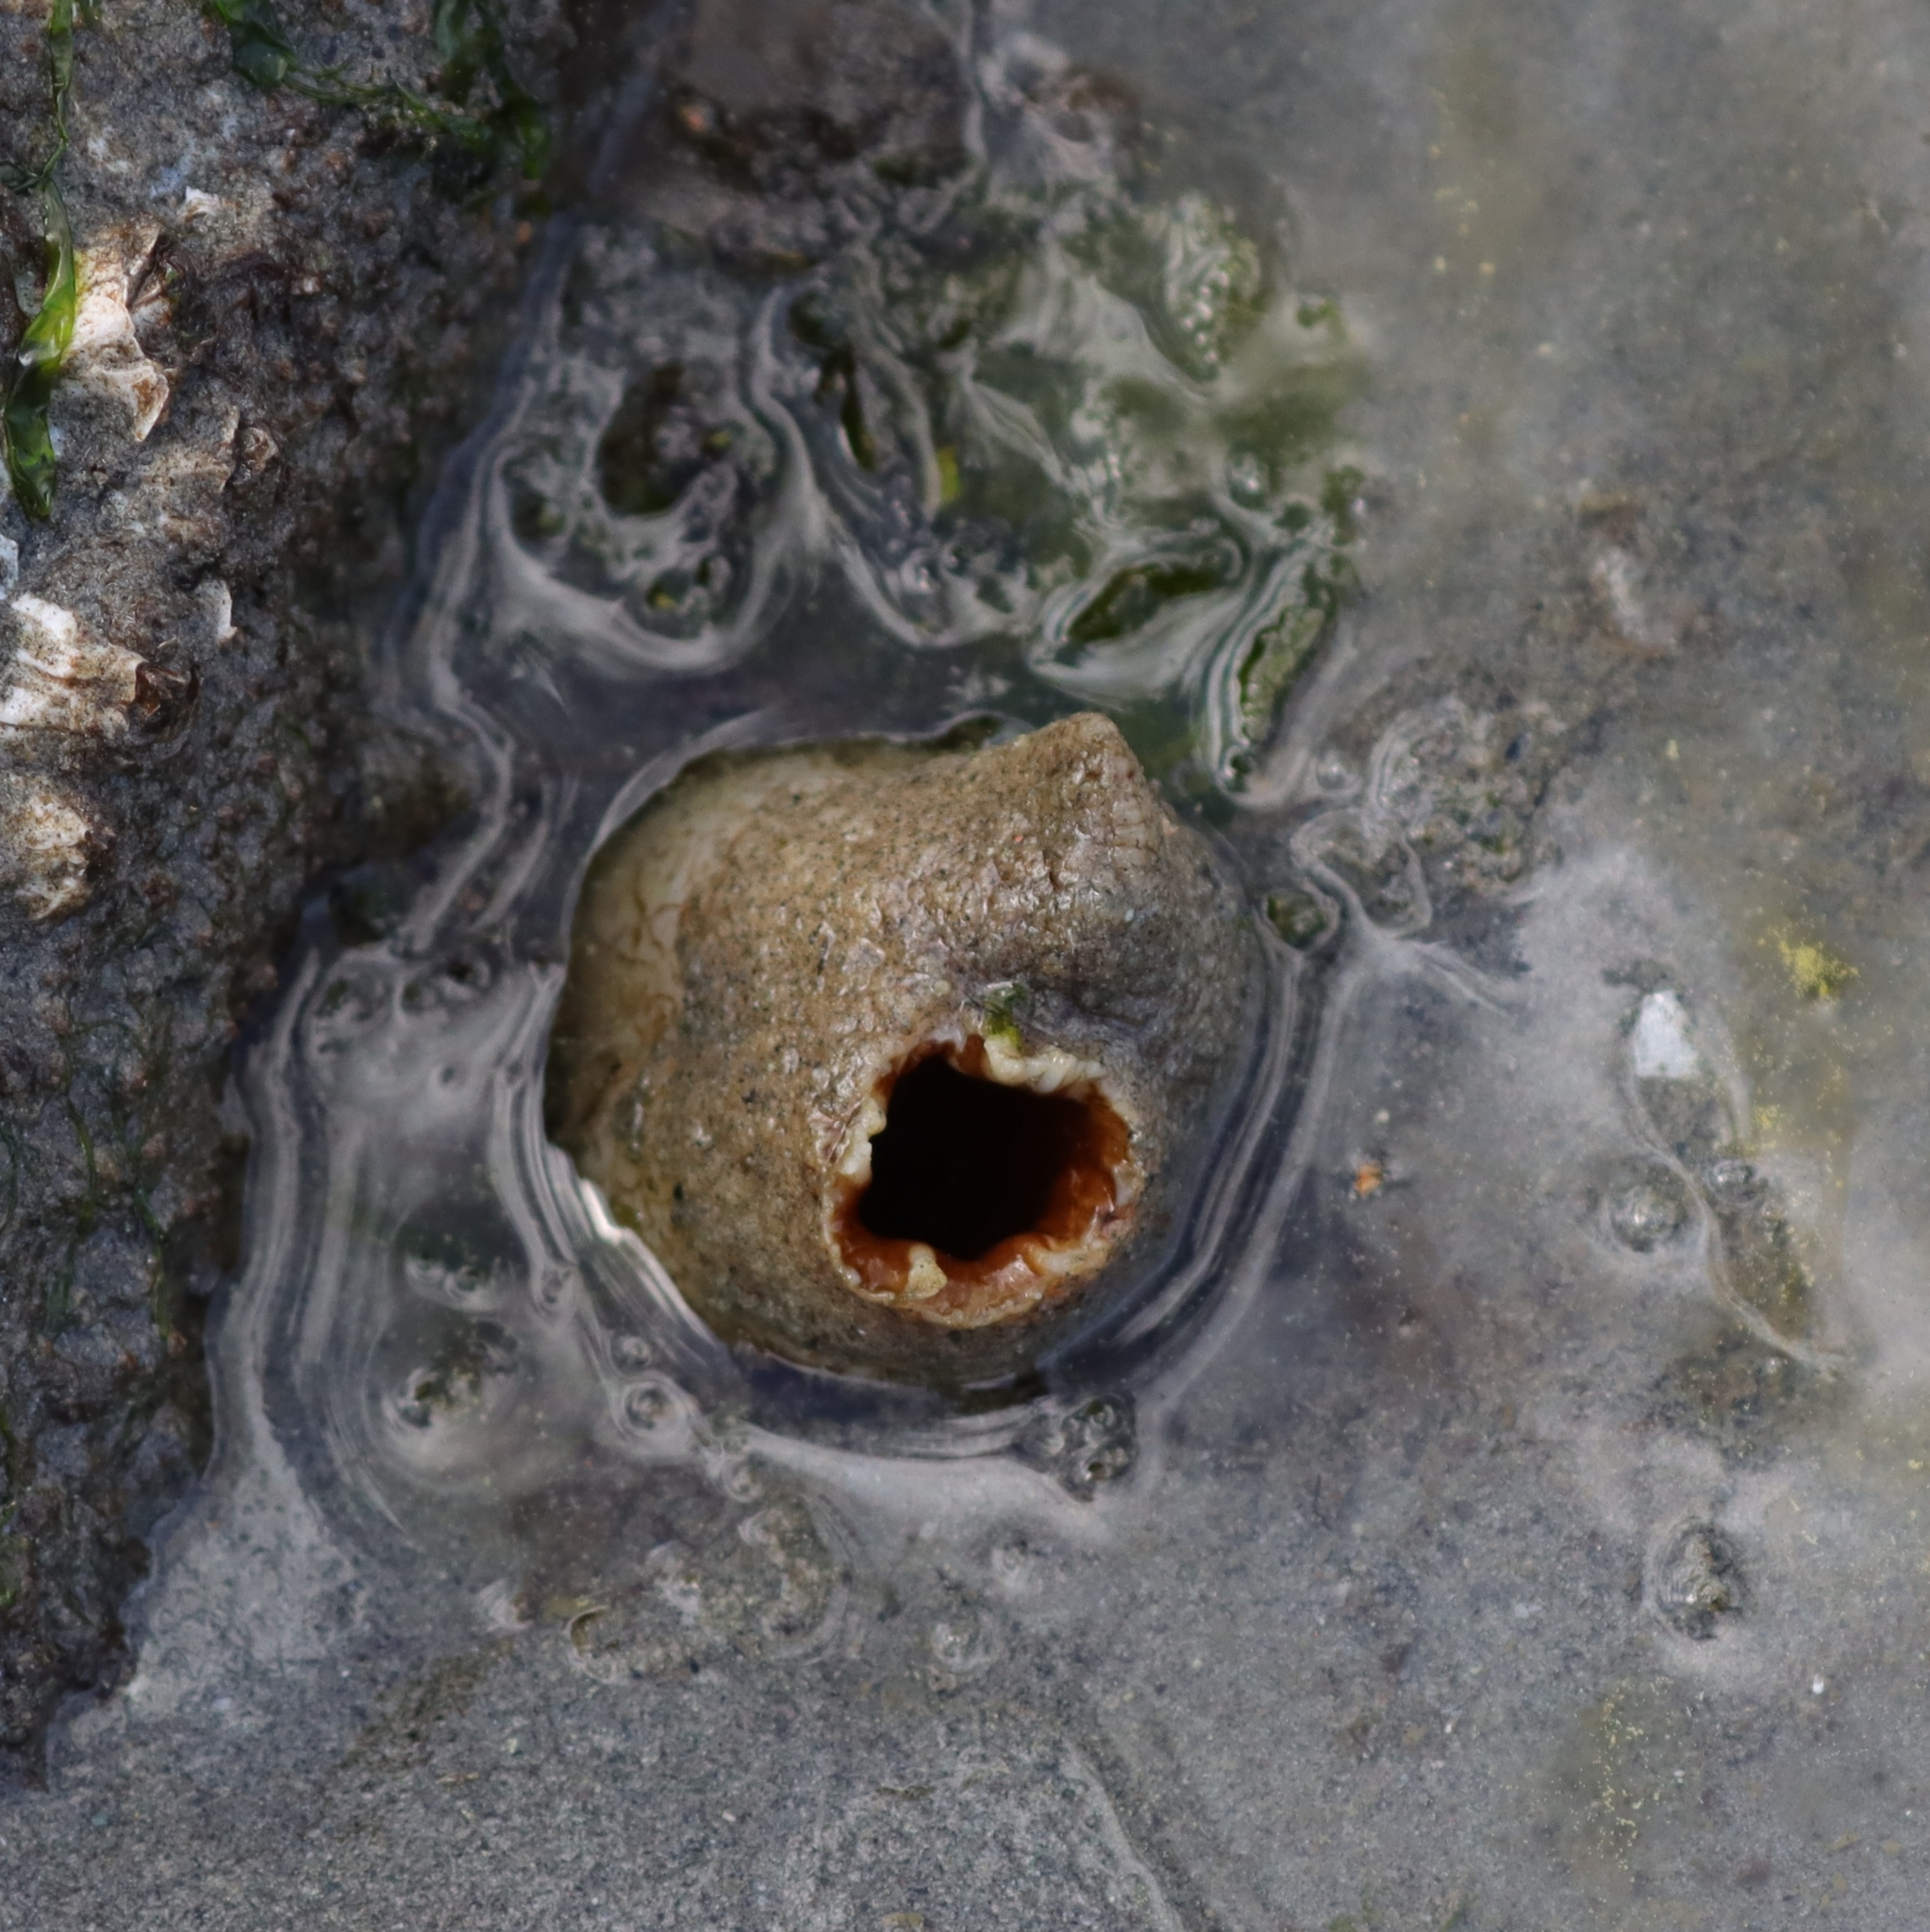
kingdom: Animalia
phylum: Mollusca
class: Bivalvia
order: Myida
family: Pholadidae
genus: Zirfaea
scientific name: Zirfaea pilsbryi
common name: Rough piddock
